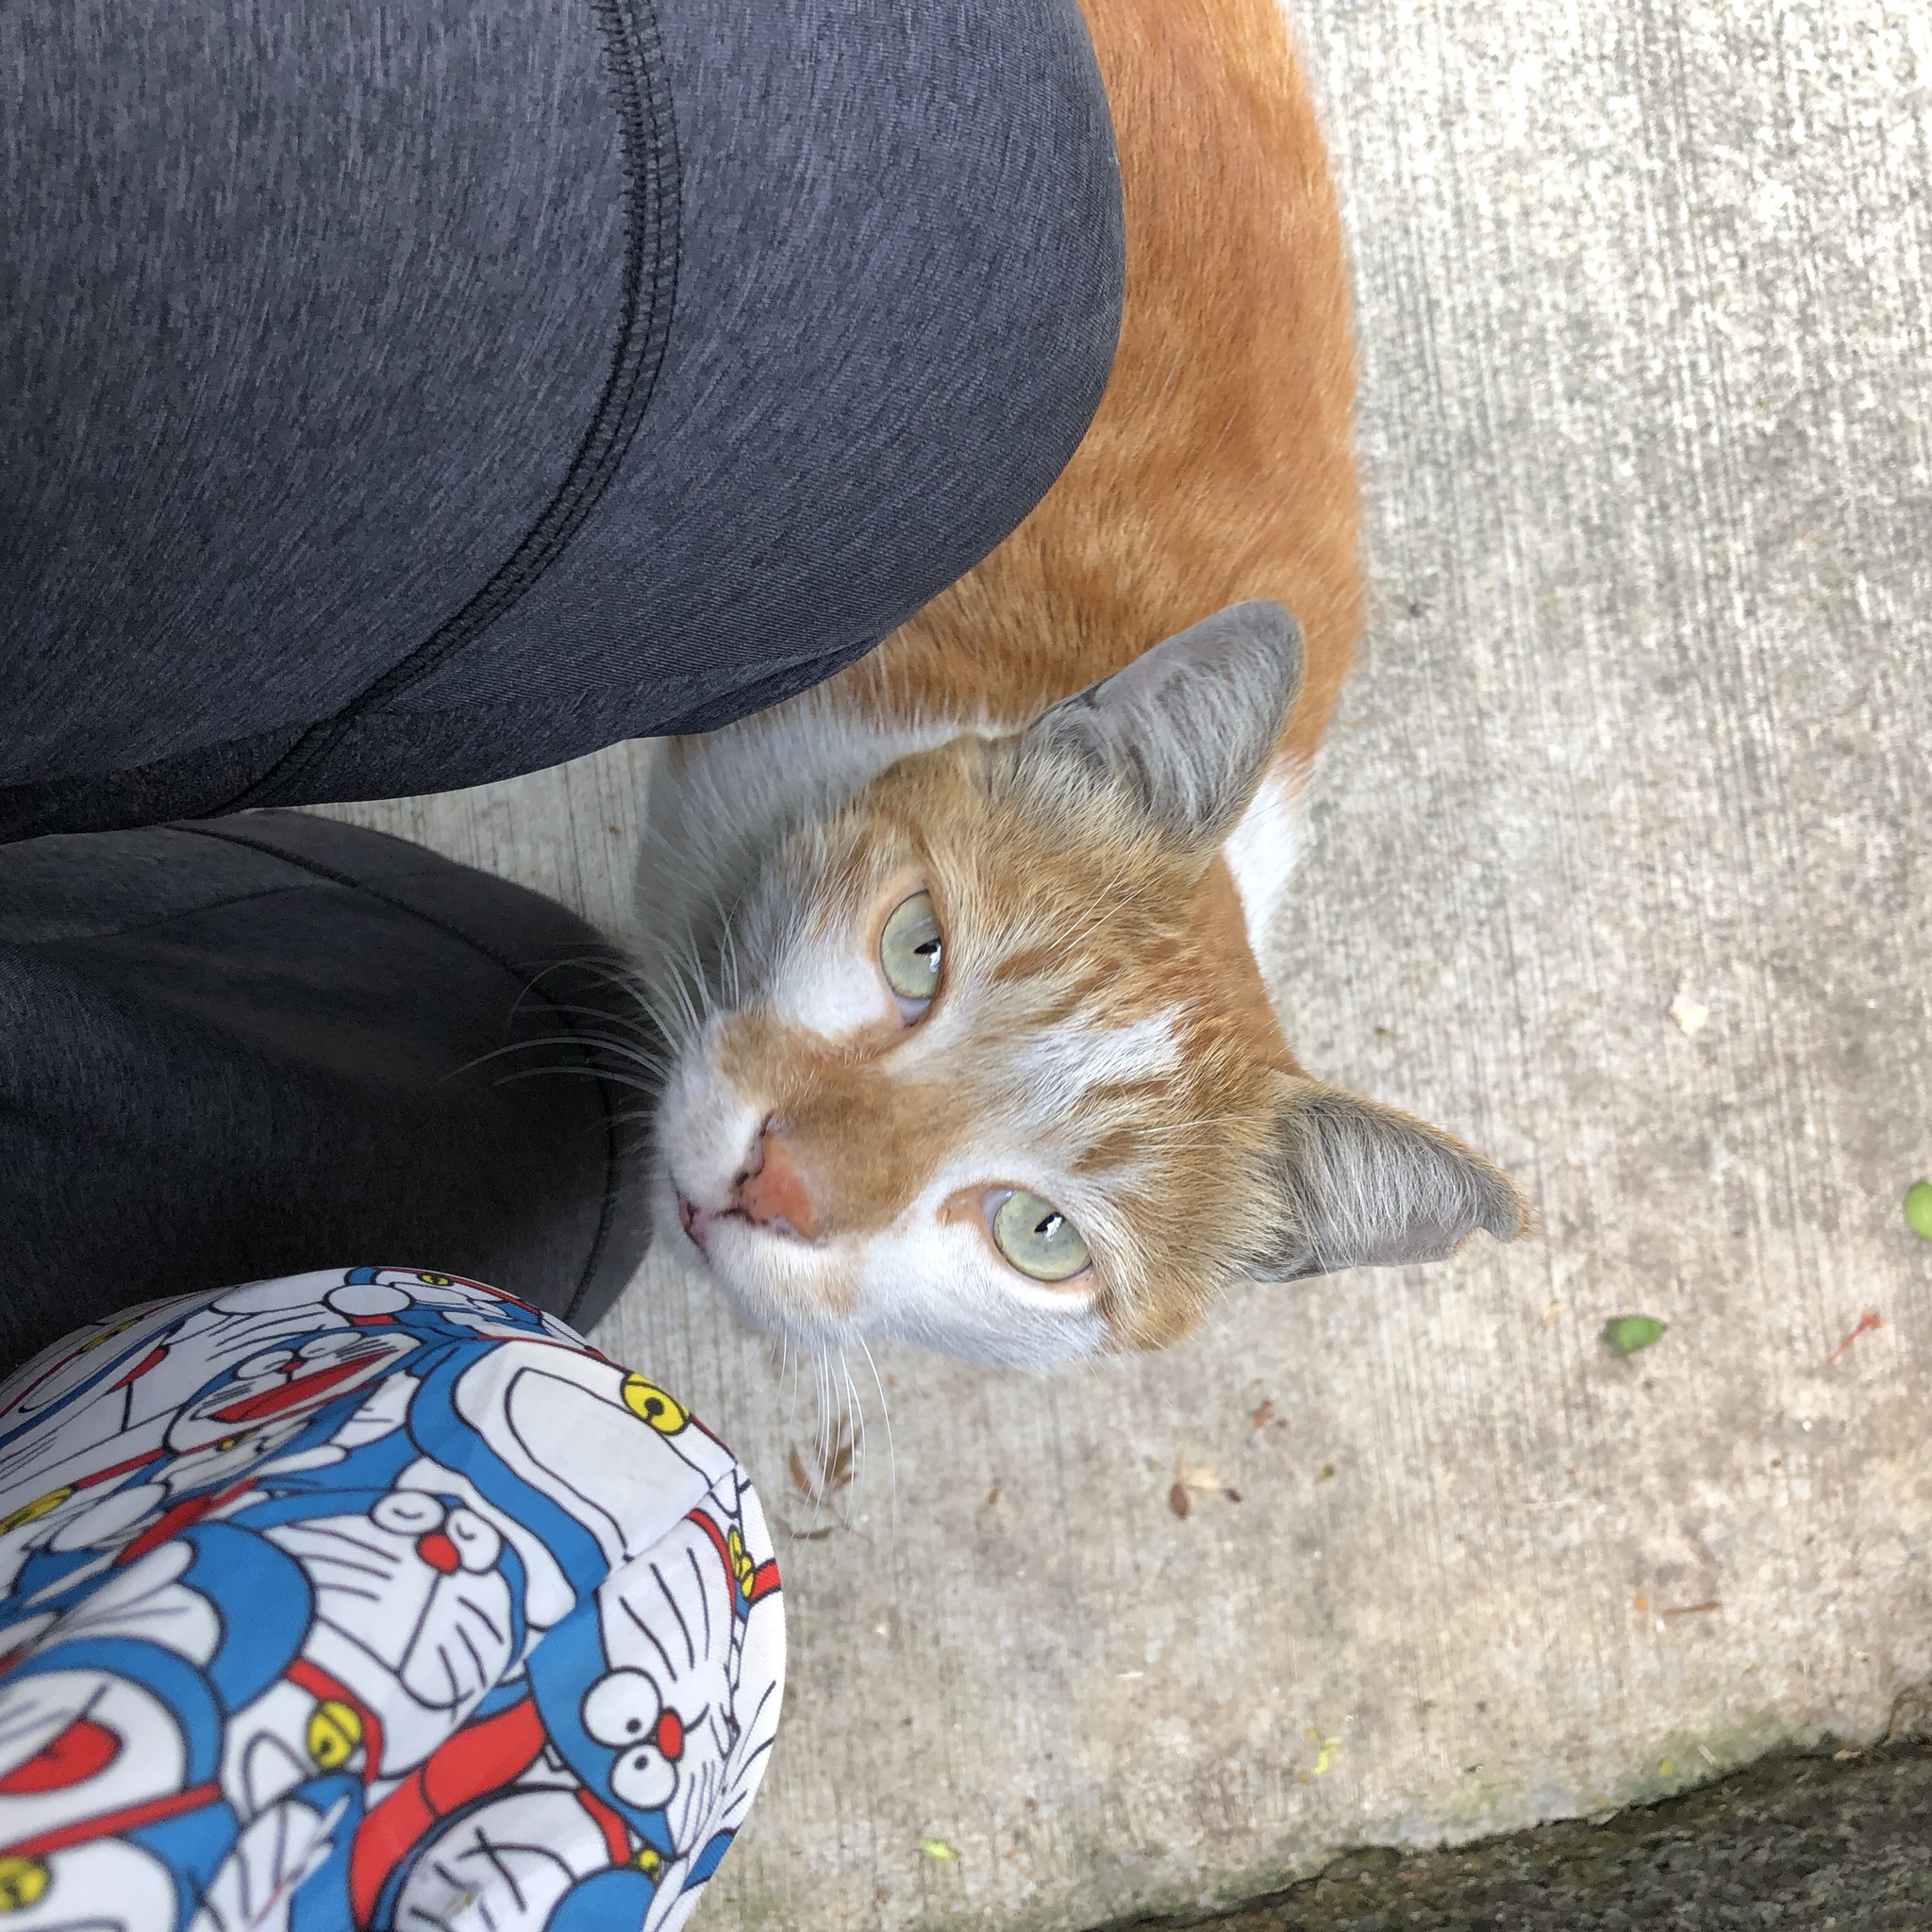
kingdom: Animalia
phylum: Chordata
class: Mammalia
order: Carnivora
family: Felidae
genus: Felis
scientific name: Felis catus
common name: Domestic cat
